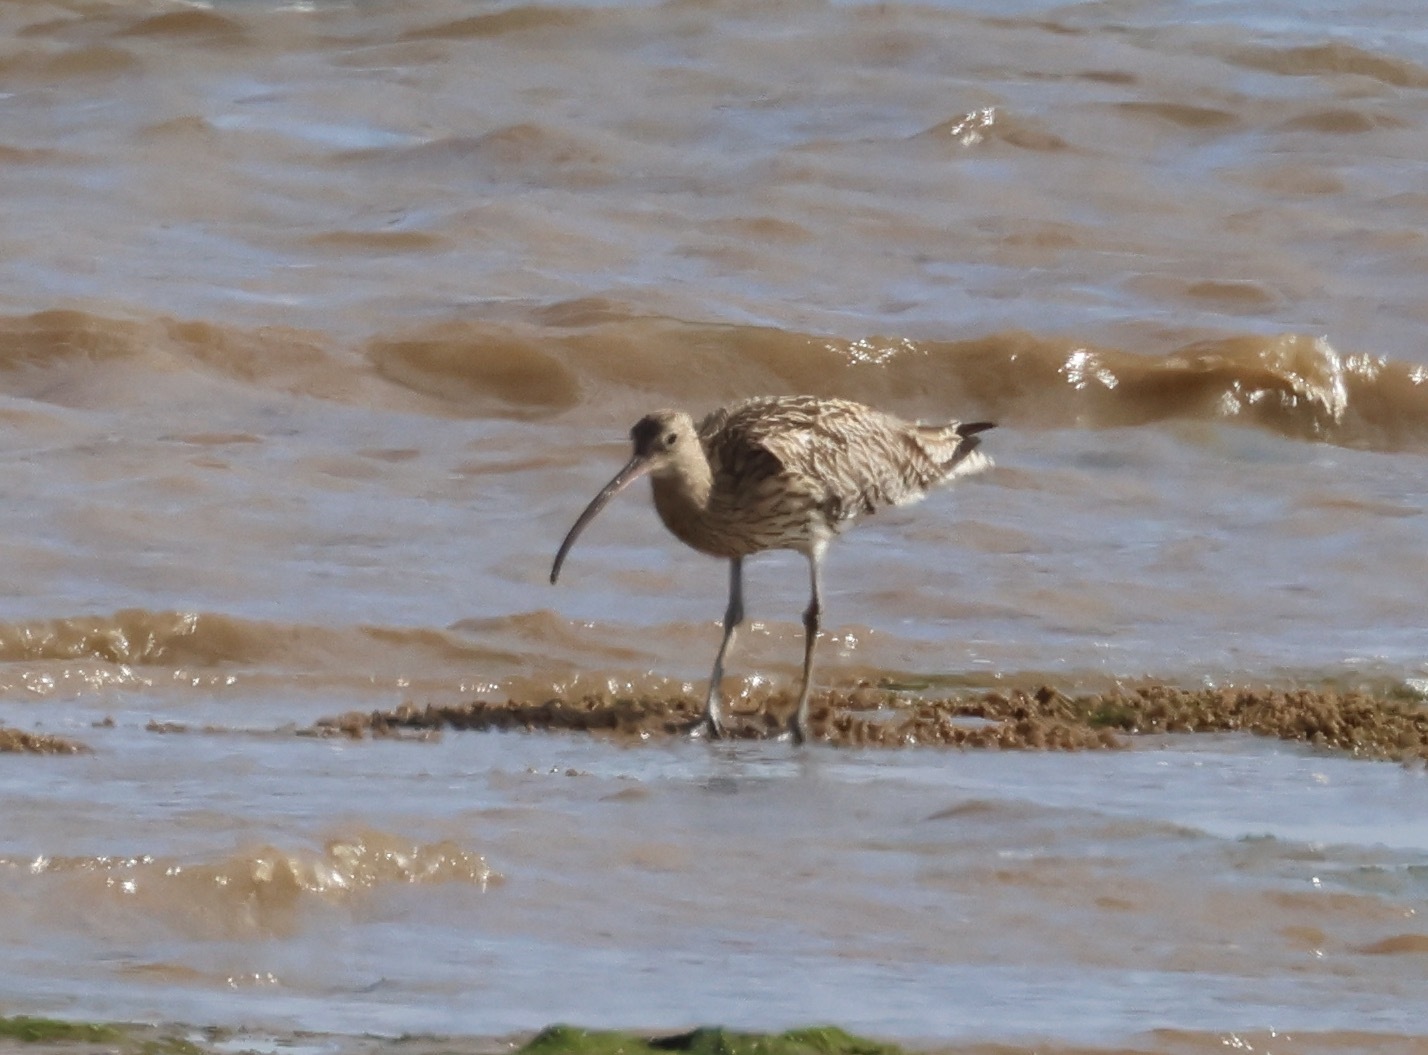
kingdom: Animalia
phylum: Chordata
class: Aves
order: Charadriiformes
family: Scolopacidae
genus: Numenius
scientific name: Numenius arquata
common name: Eurasian curlew
